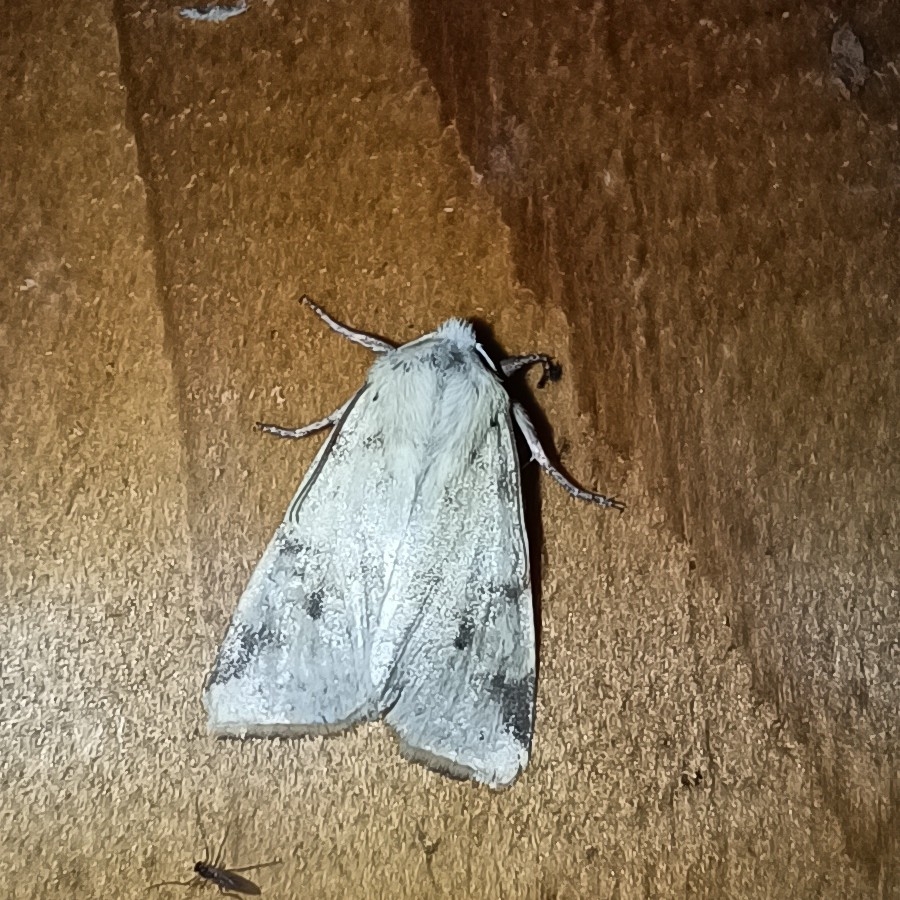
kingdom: Animalia
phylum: Arthropoda
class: Insecta
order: Lepidoptera
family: Noctuidae
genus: Xanthia
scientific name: Xanthia icteritia
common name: The sallow
